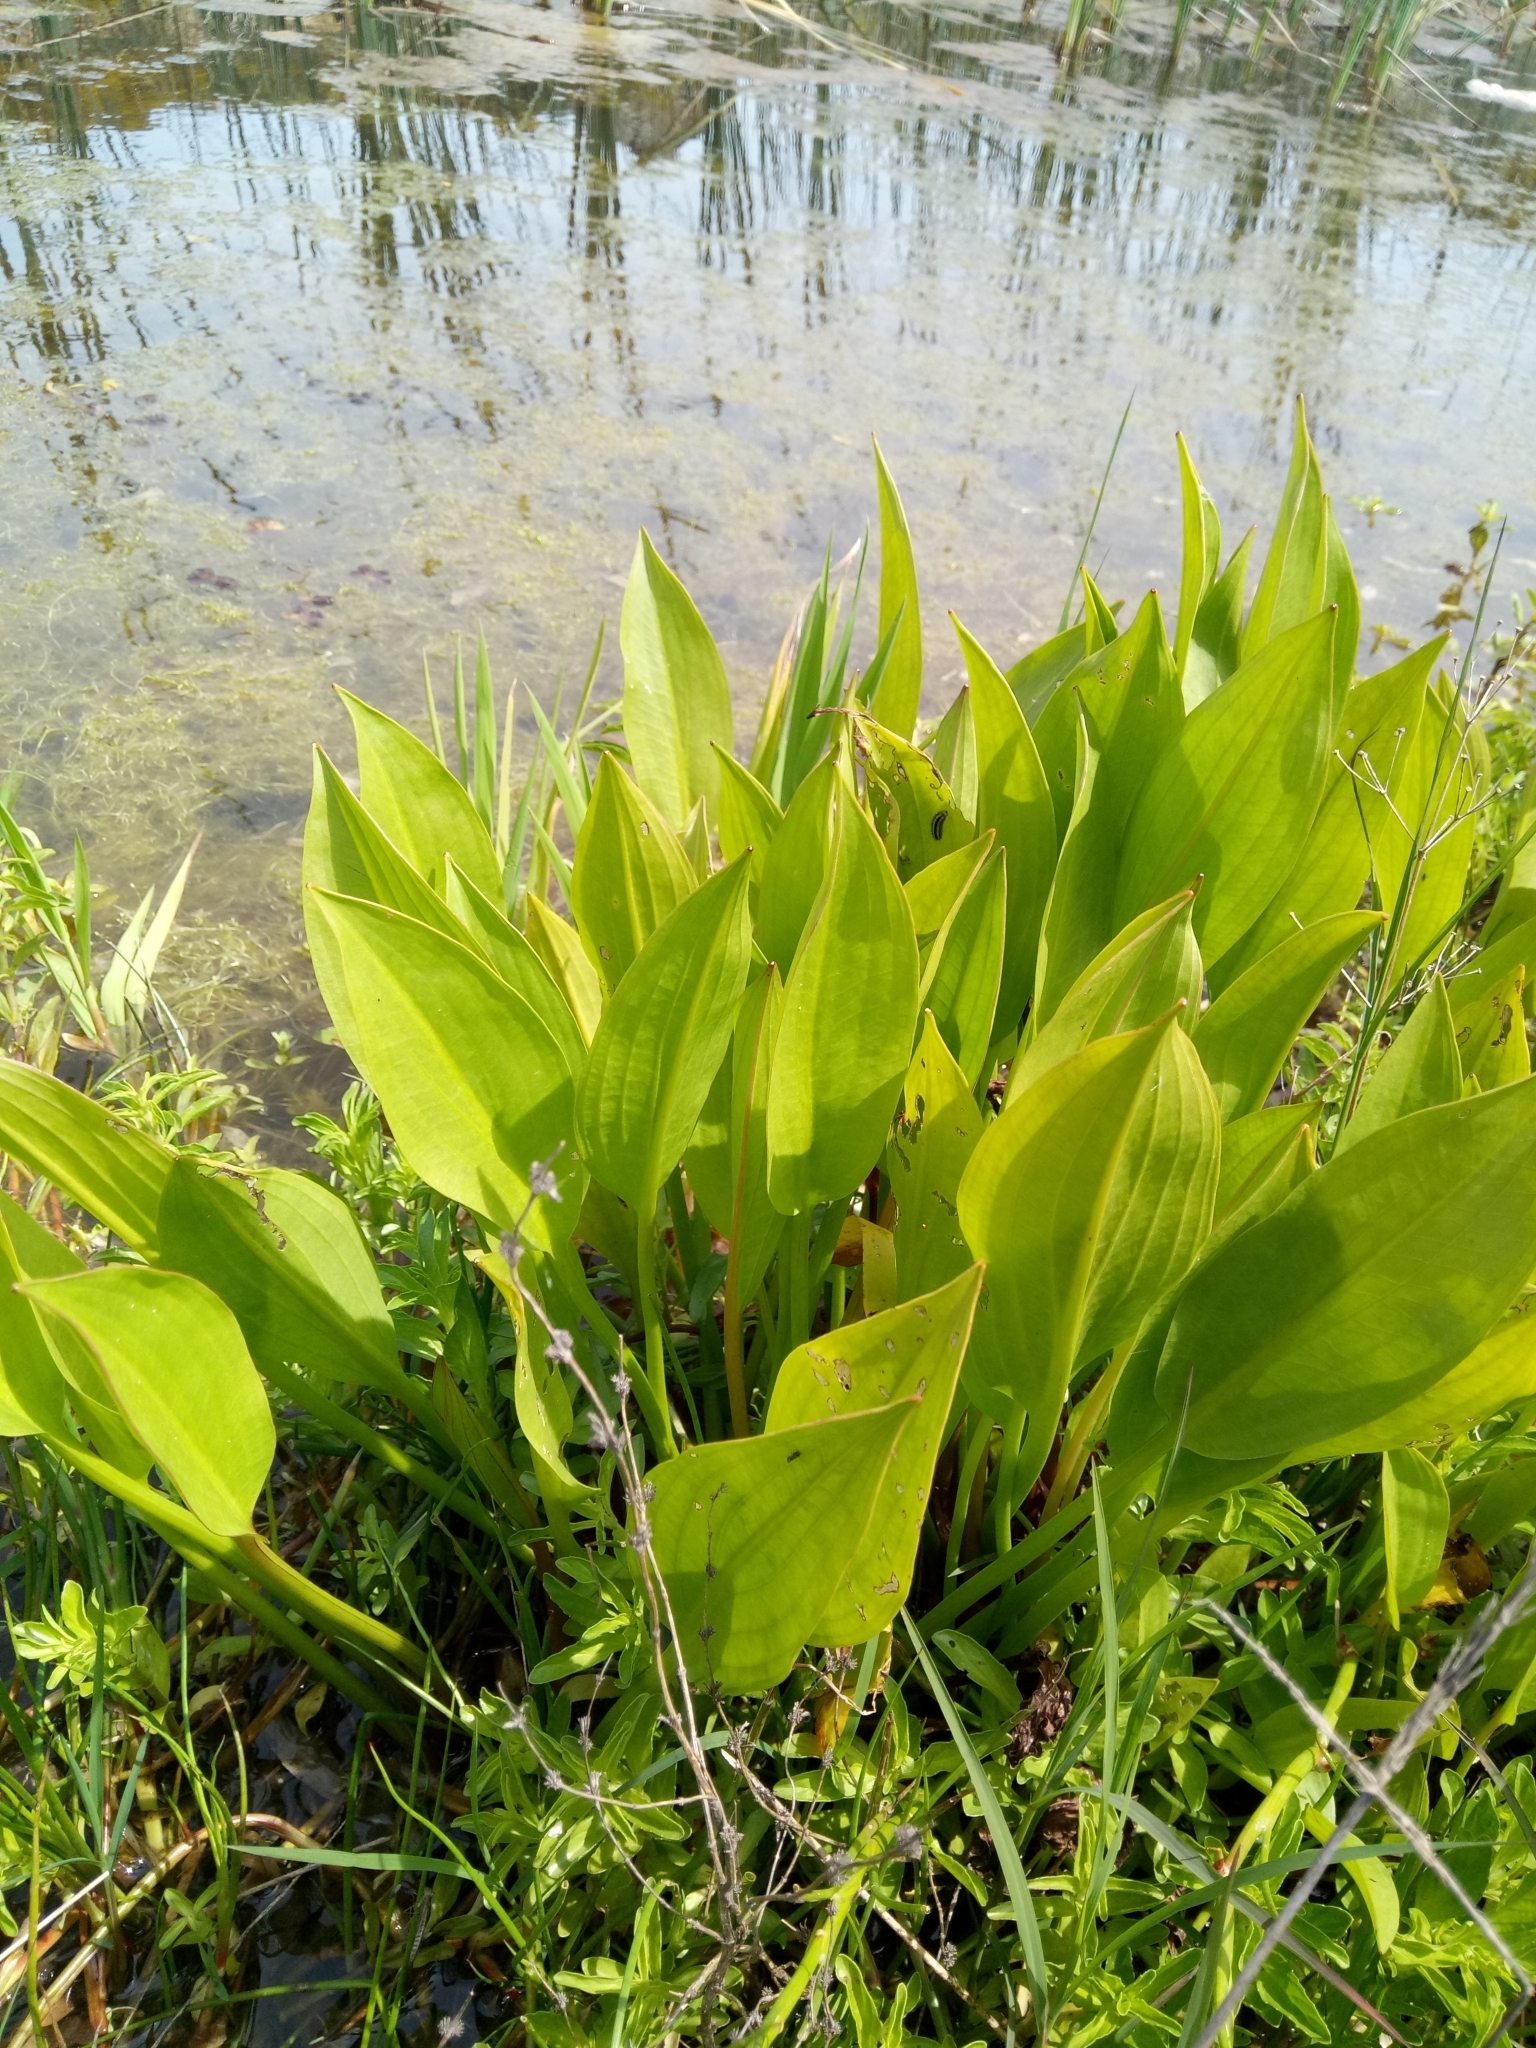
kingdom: Plantae
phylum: Tracheophyta
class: Liliopsida
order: Alismatales
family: Alismataceae
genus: Alisma
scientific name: Alisma plantago-aquatica
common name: Water-plantain
